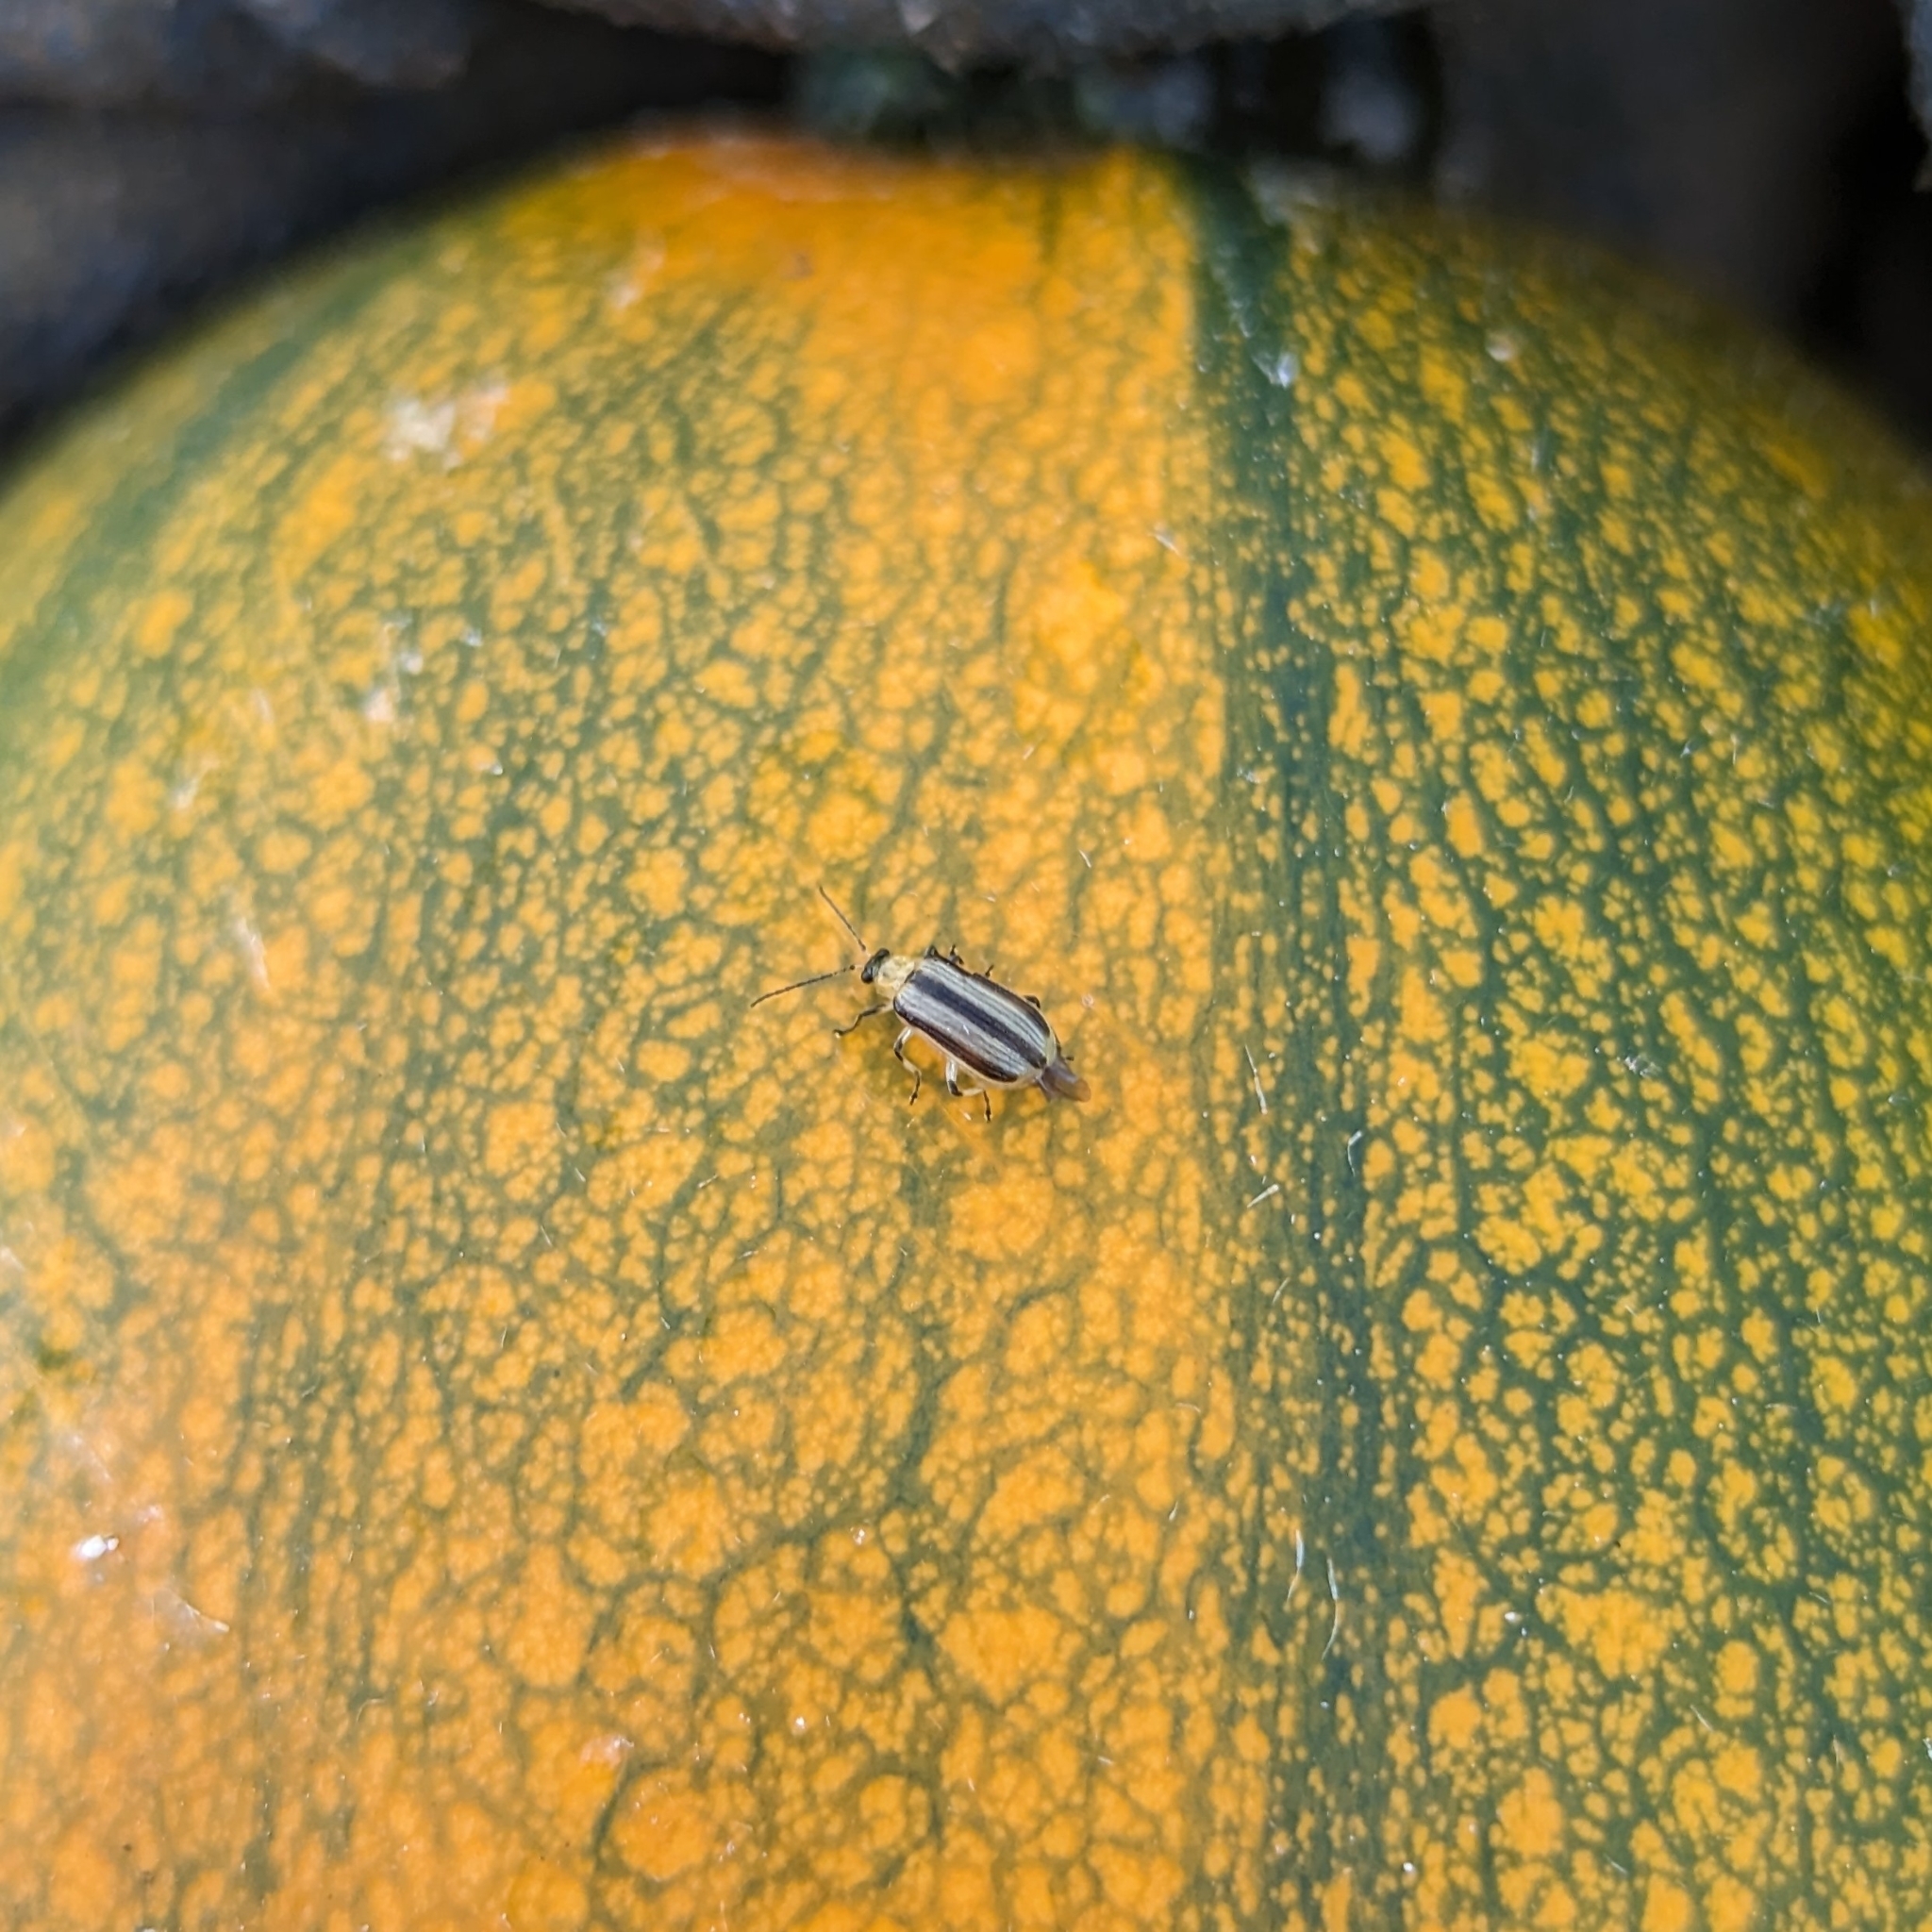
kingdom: Animalia
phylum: Arthropoda
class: Insecta
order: Coleoptera
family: Chrysomelidae
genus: Acalymma
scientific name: Acalymma vittatum
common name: Striped cucumber beetle
